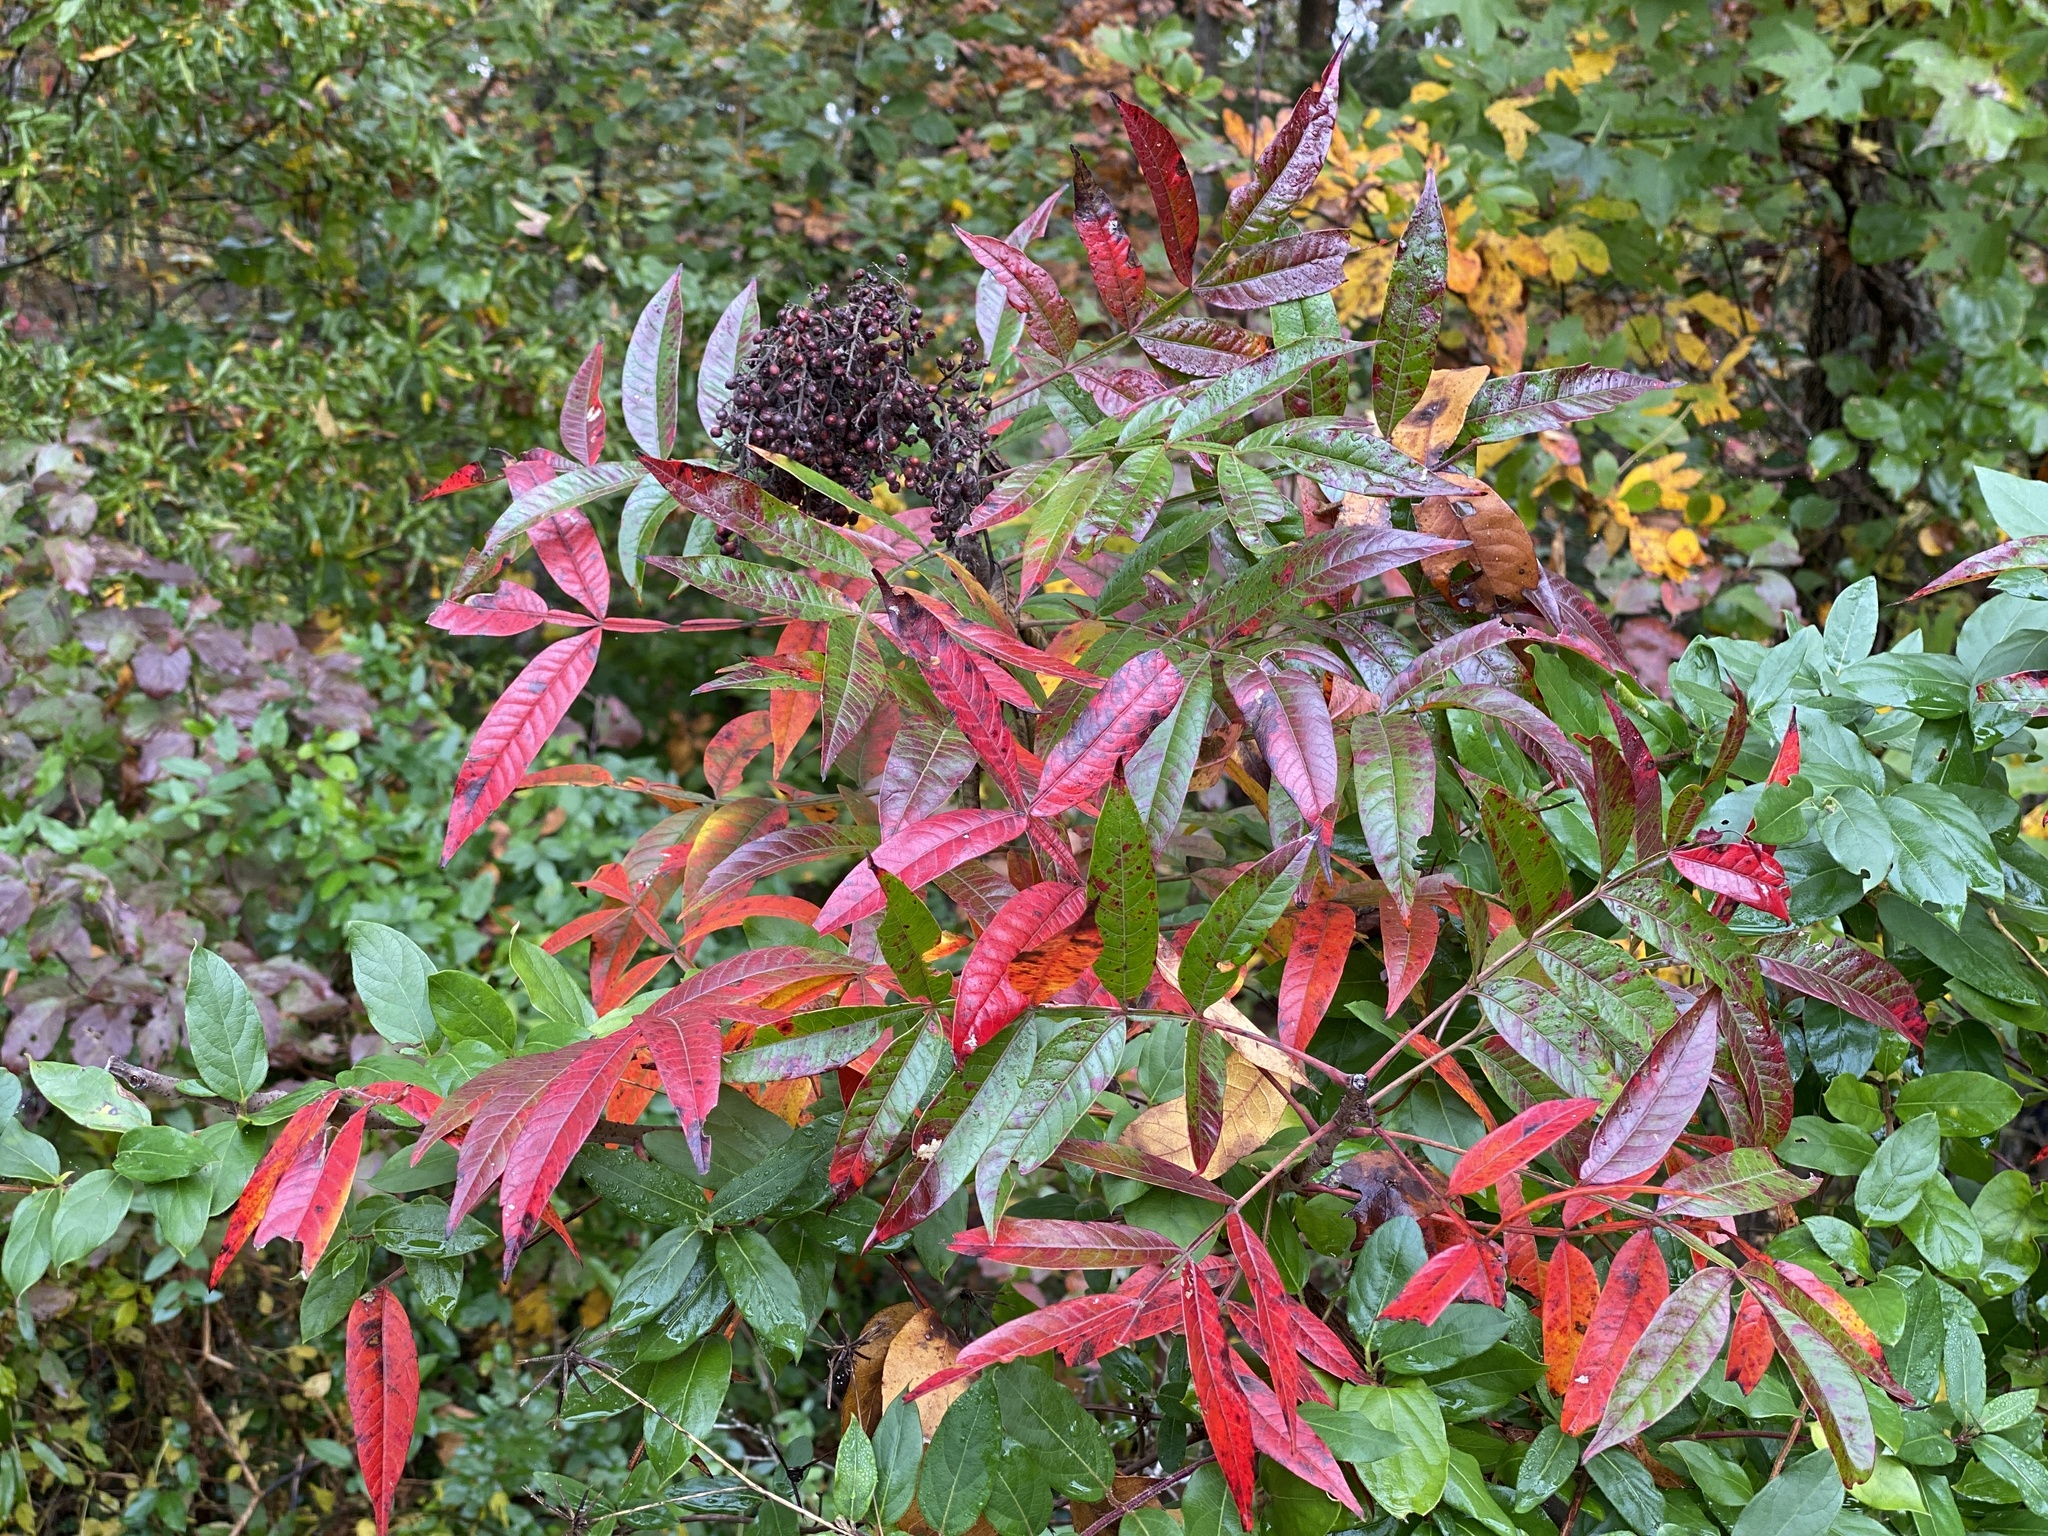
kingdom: Plantae
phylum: Tracheophyta
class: Magnoliopsida
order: Sapindales
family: Anacardiaceae
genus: Rhus
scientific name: Rhus copallina
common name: Shining sumac
